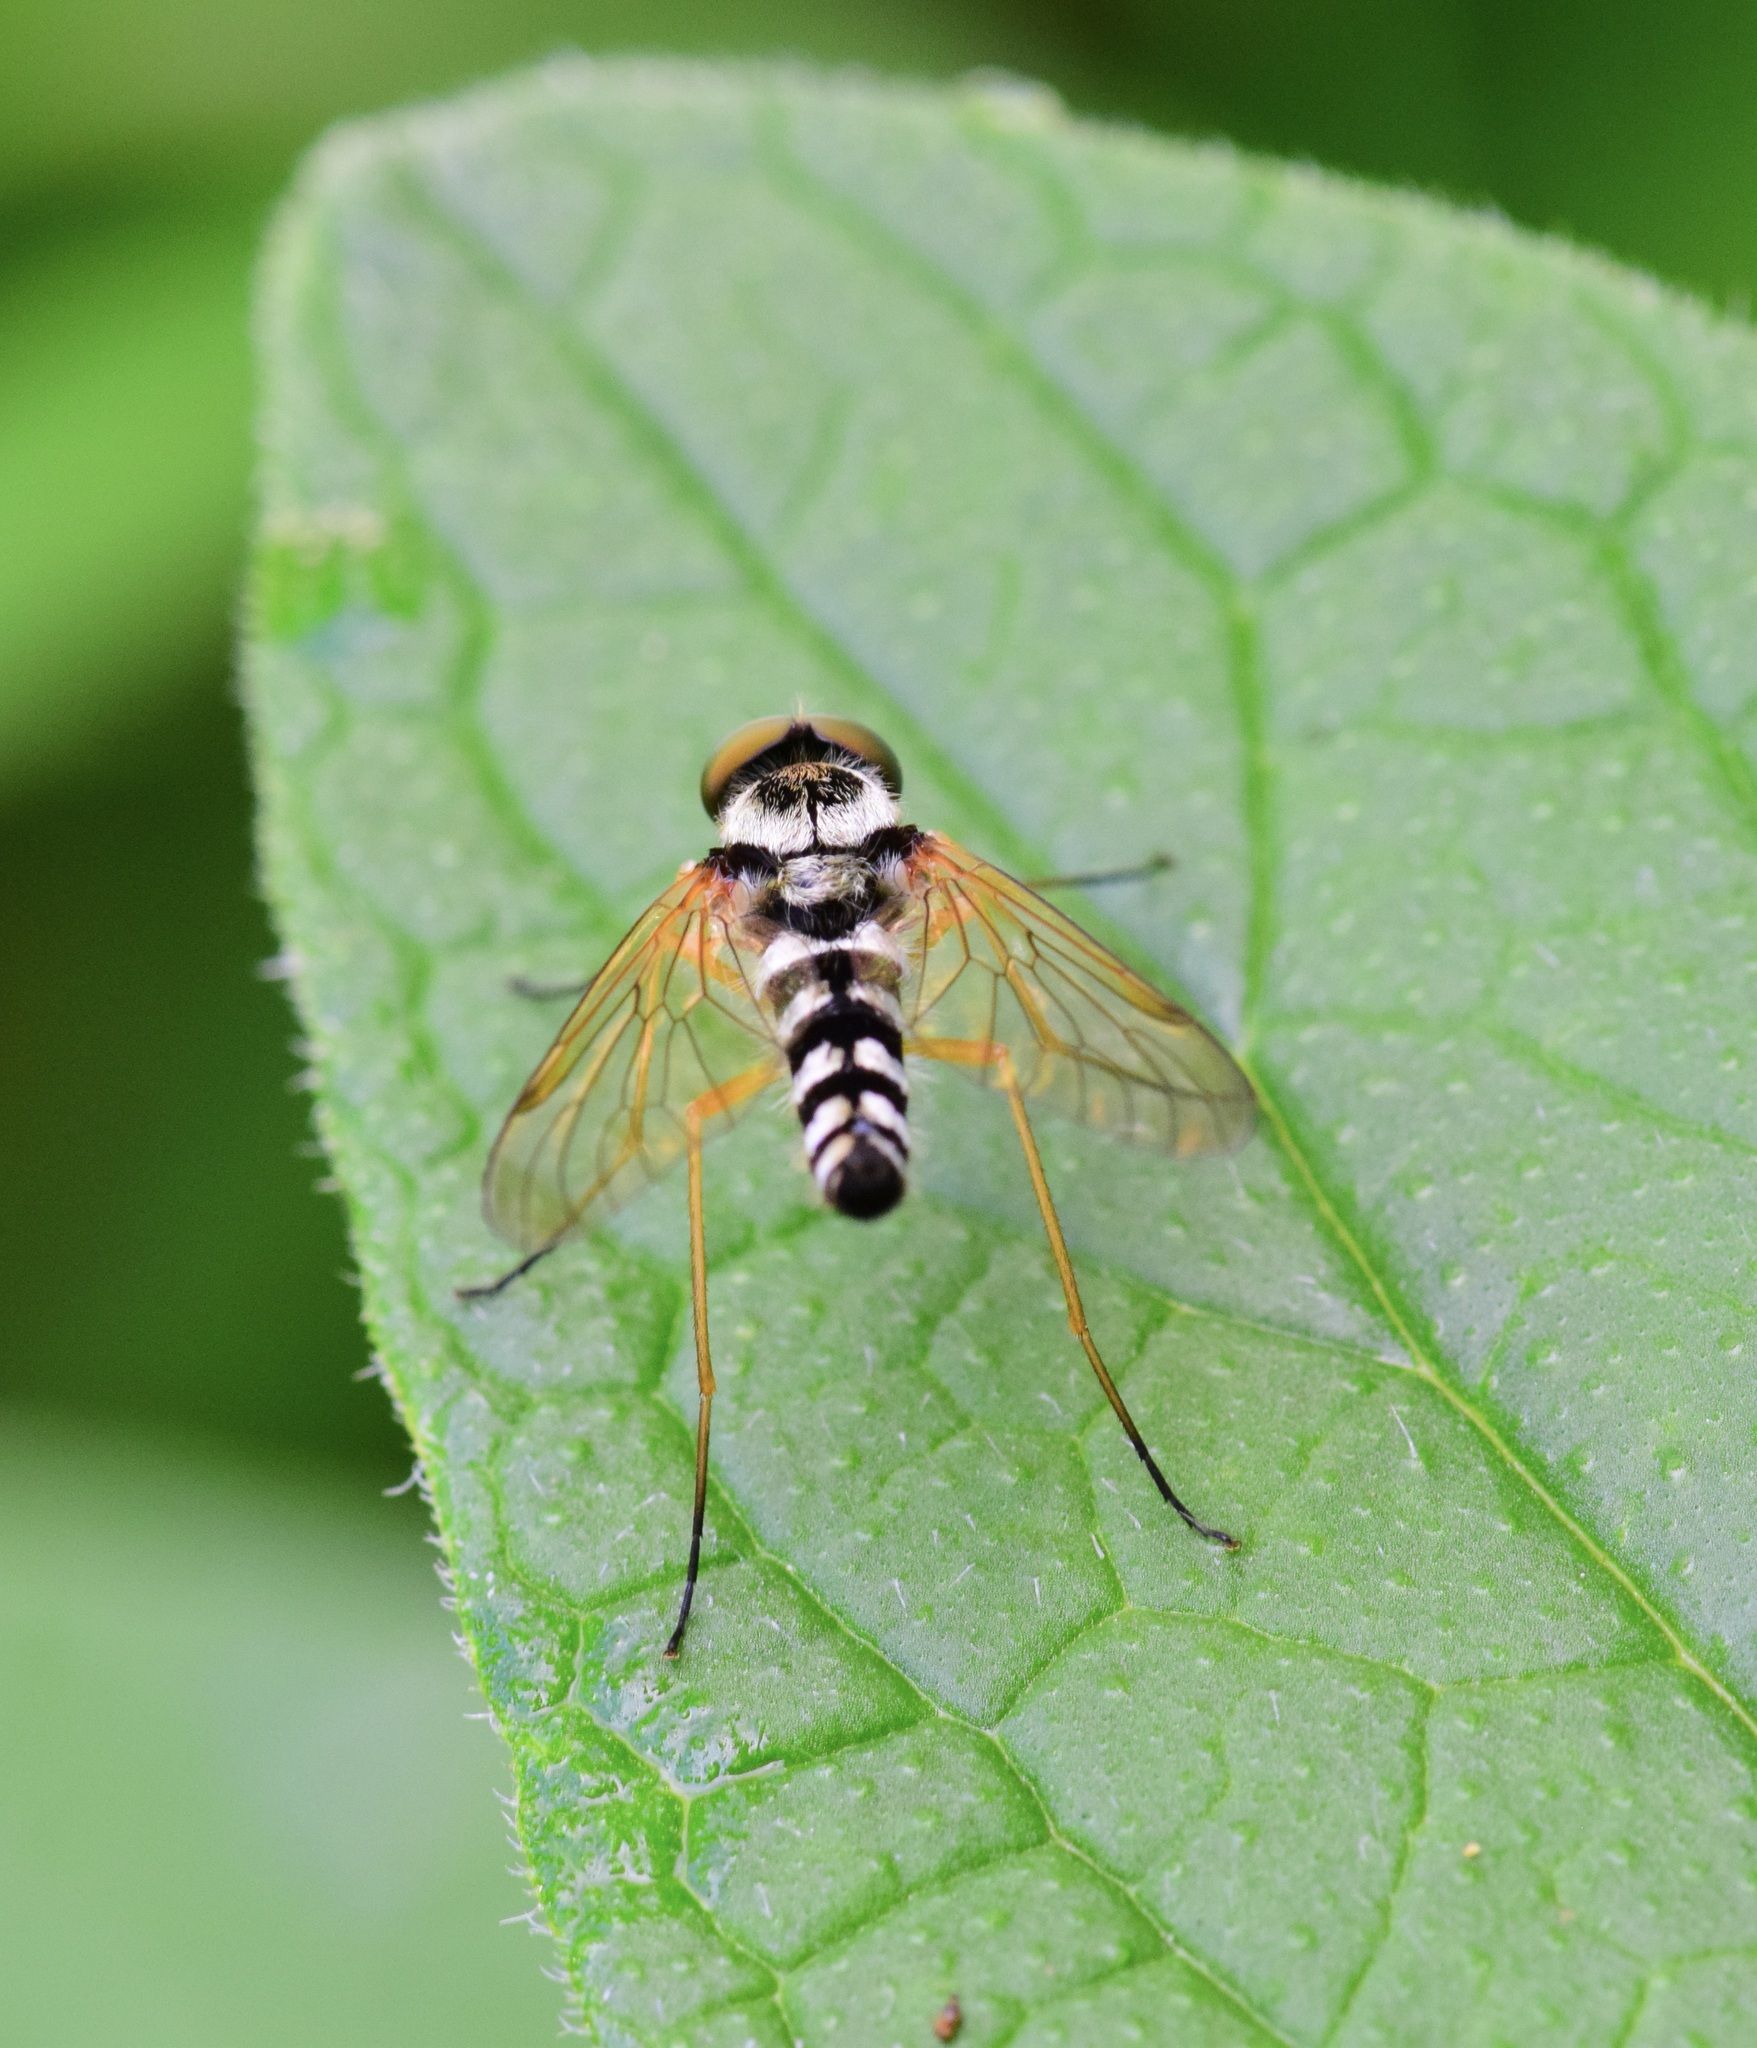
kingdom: Animalia
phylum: Arthropoda
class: Insecta
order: Diptera
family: Rhagionidae
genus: Chrysopilus
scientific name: Chrysopilus ornatus
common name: Ornate snipe fly
